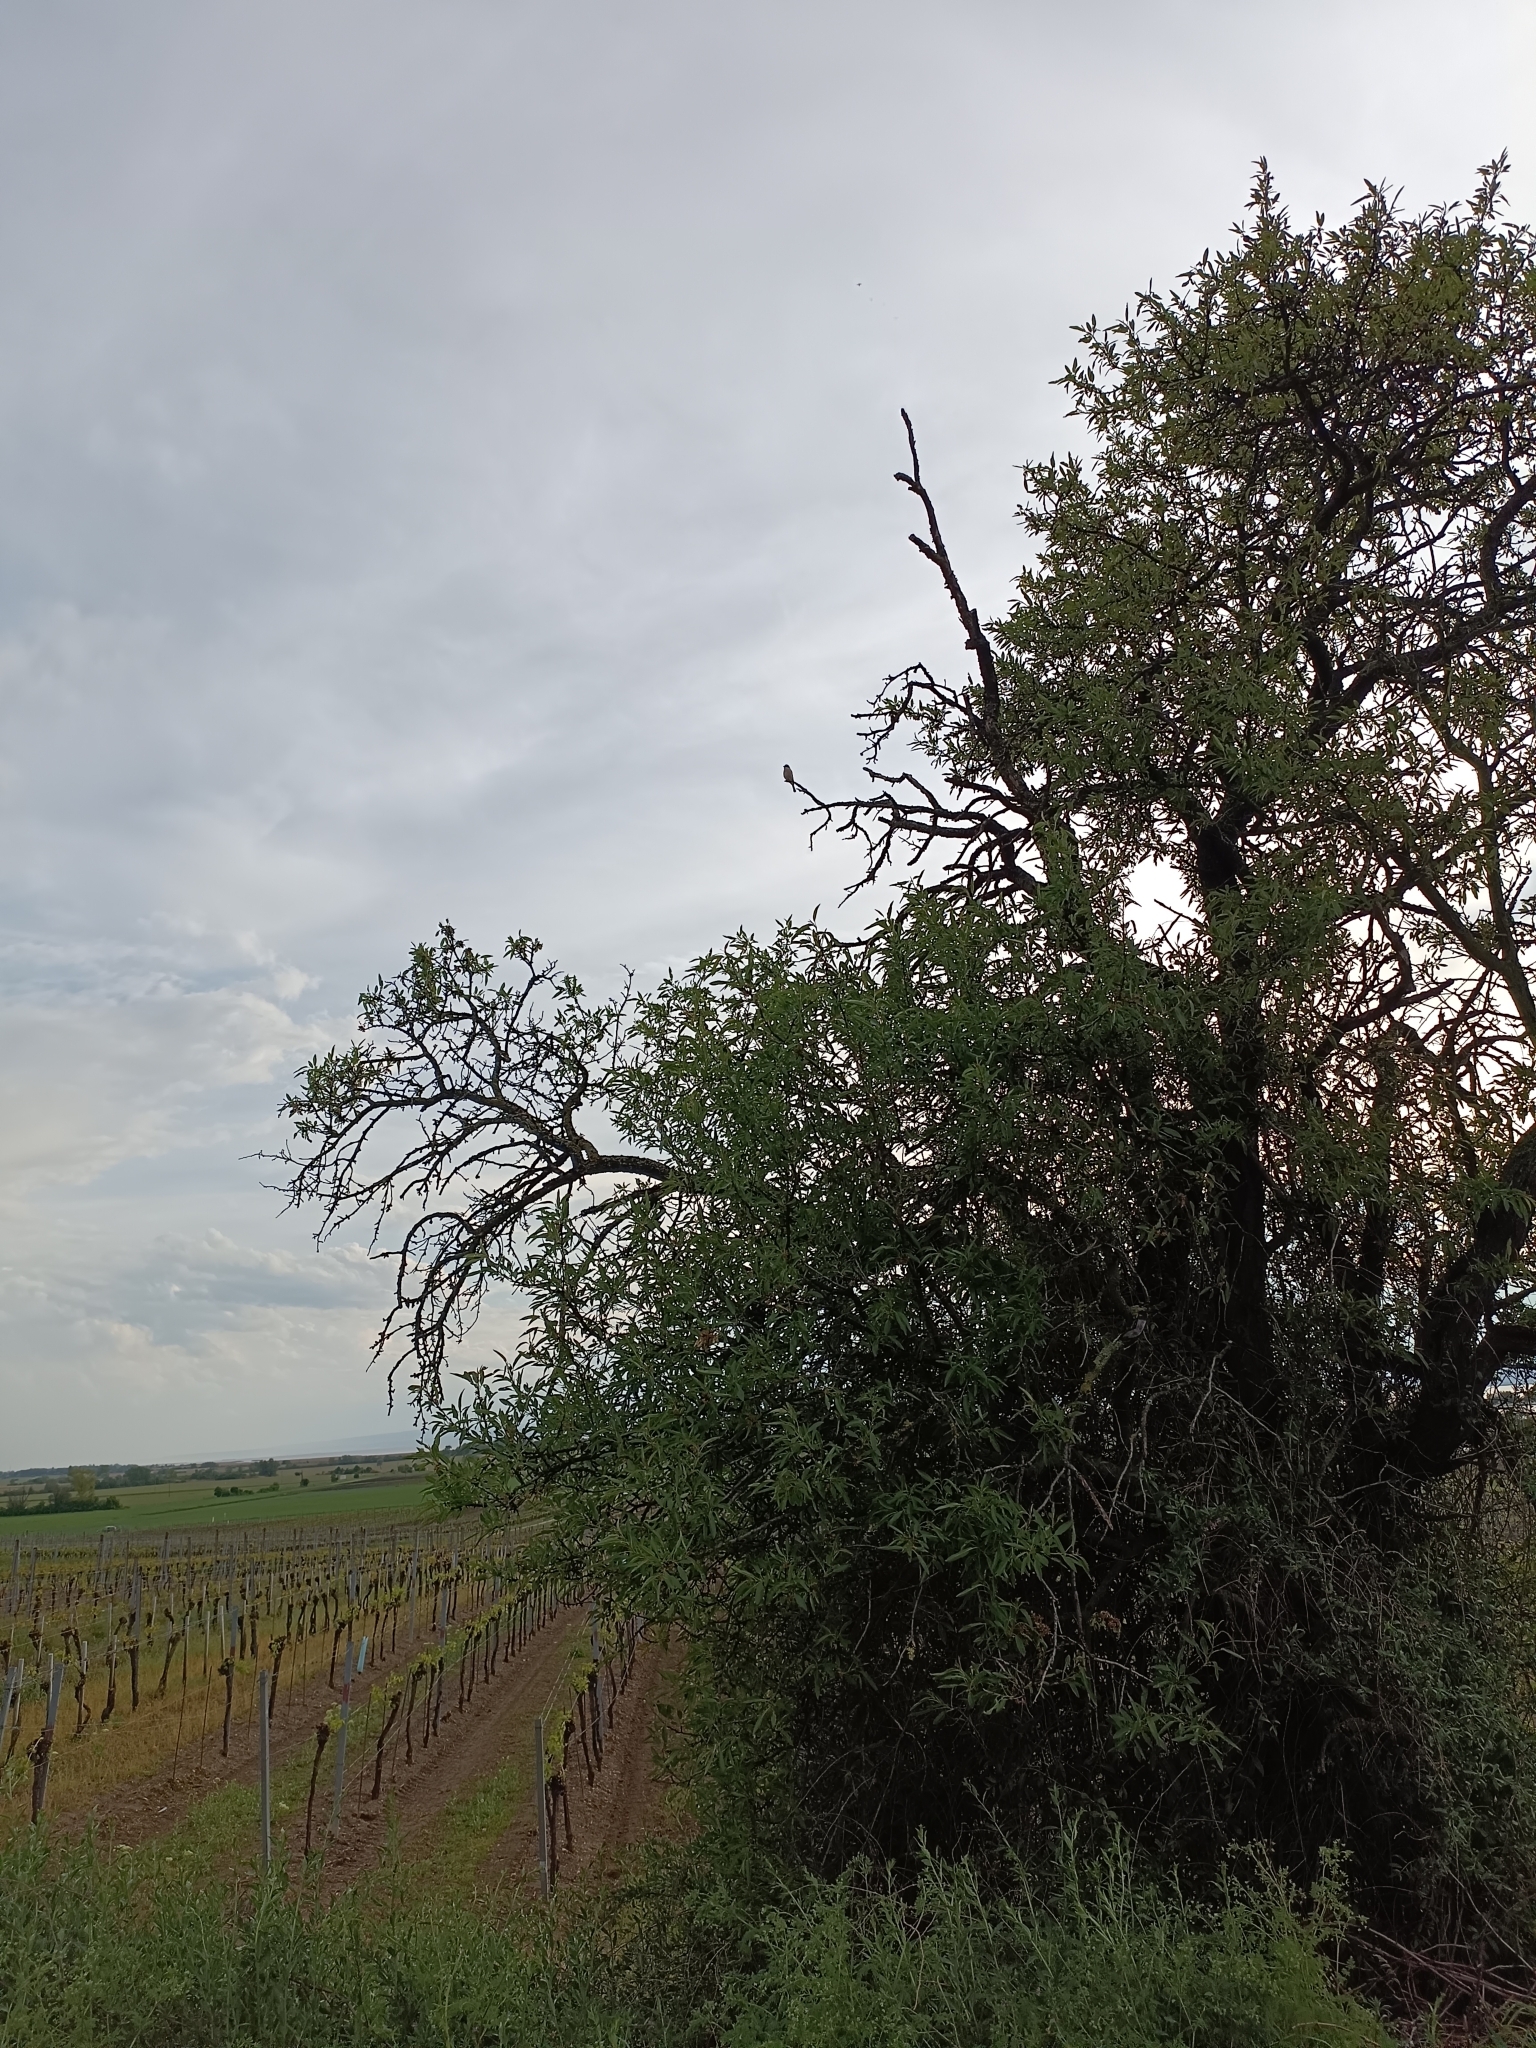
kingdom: Animalia
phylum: Chordata
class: Aves
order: Passeriformes
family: Laniidae
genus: Lanius
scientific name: Lanius collurio
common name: Red-backed shrike
